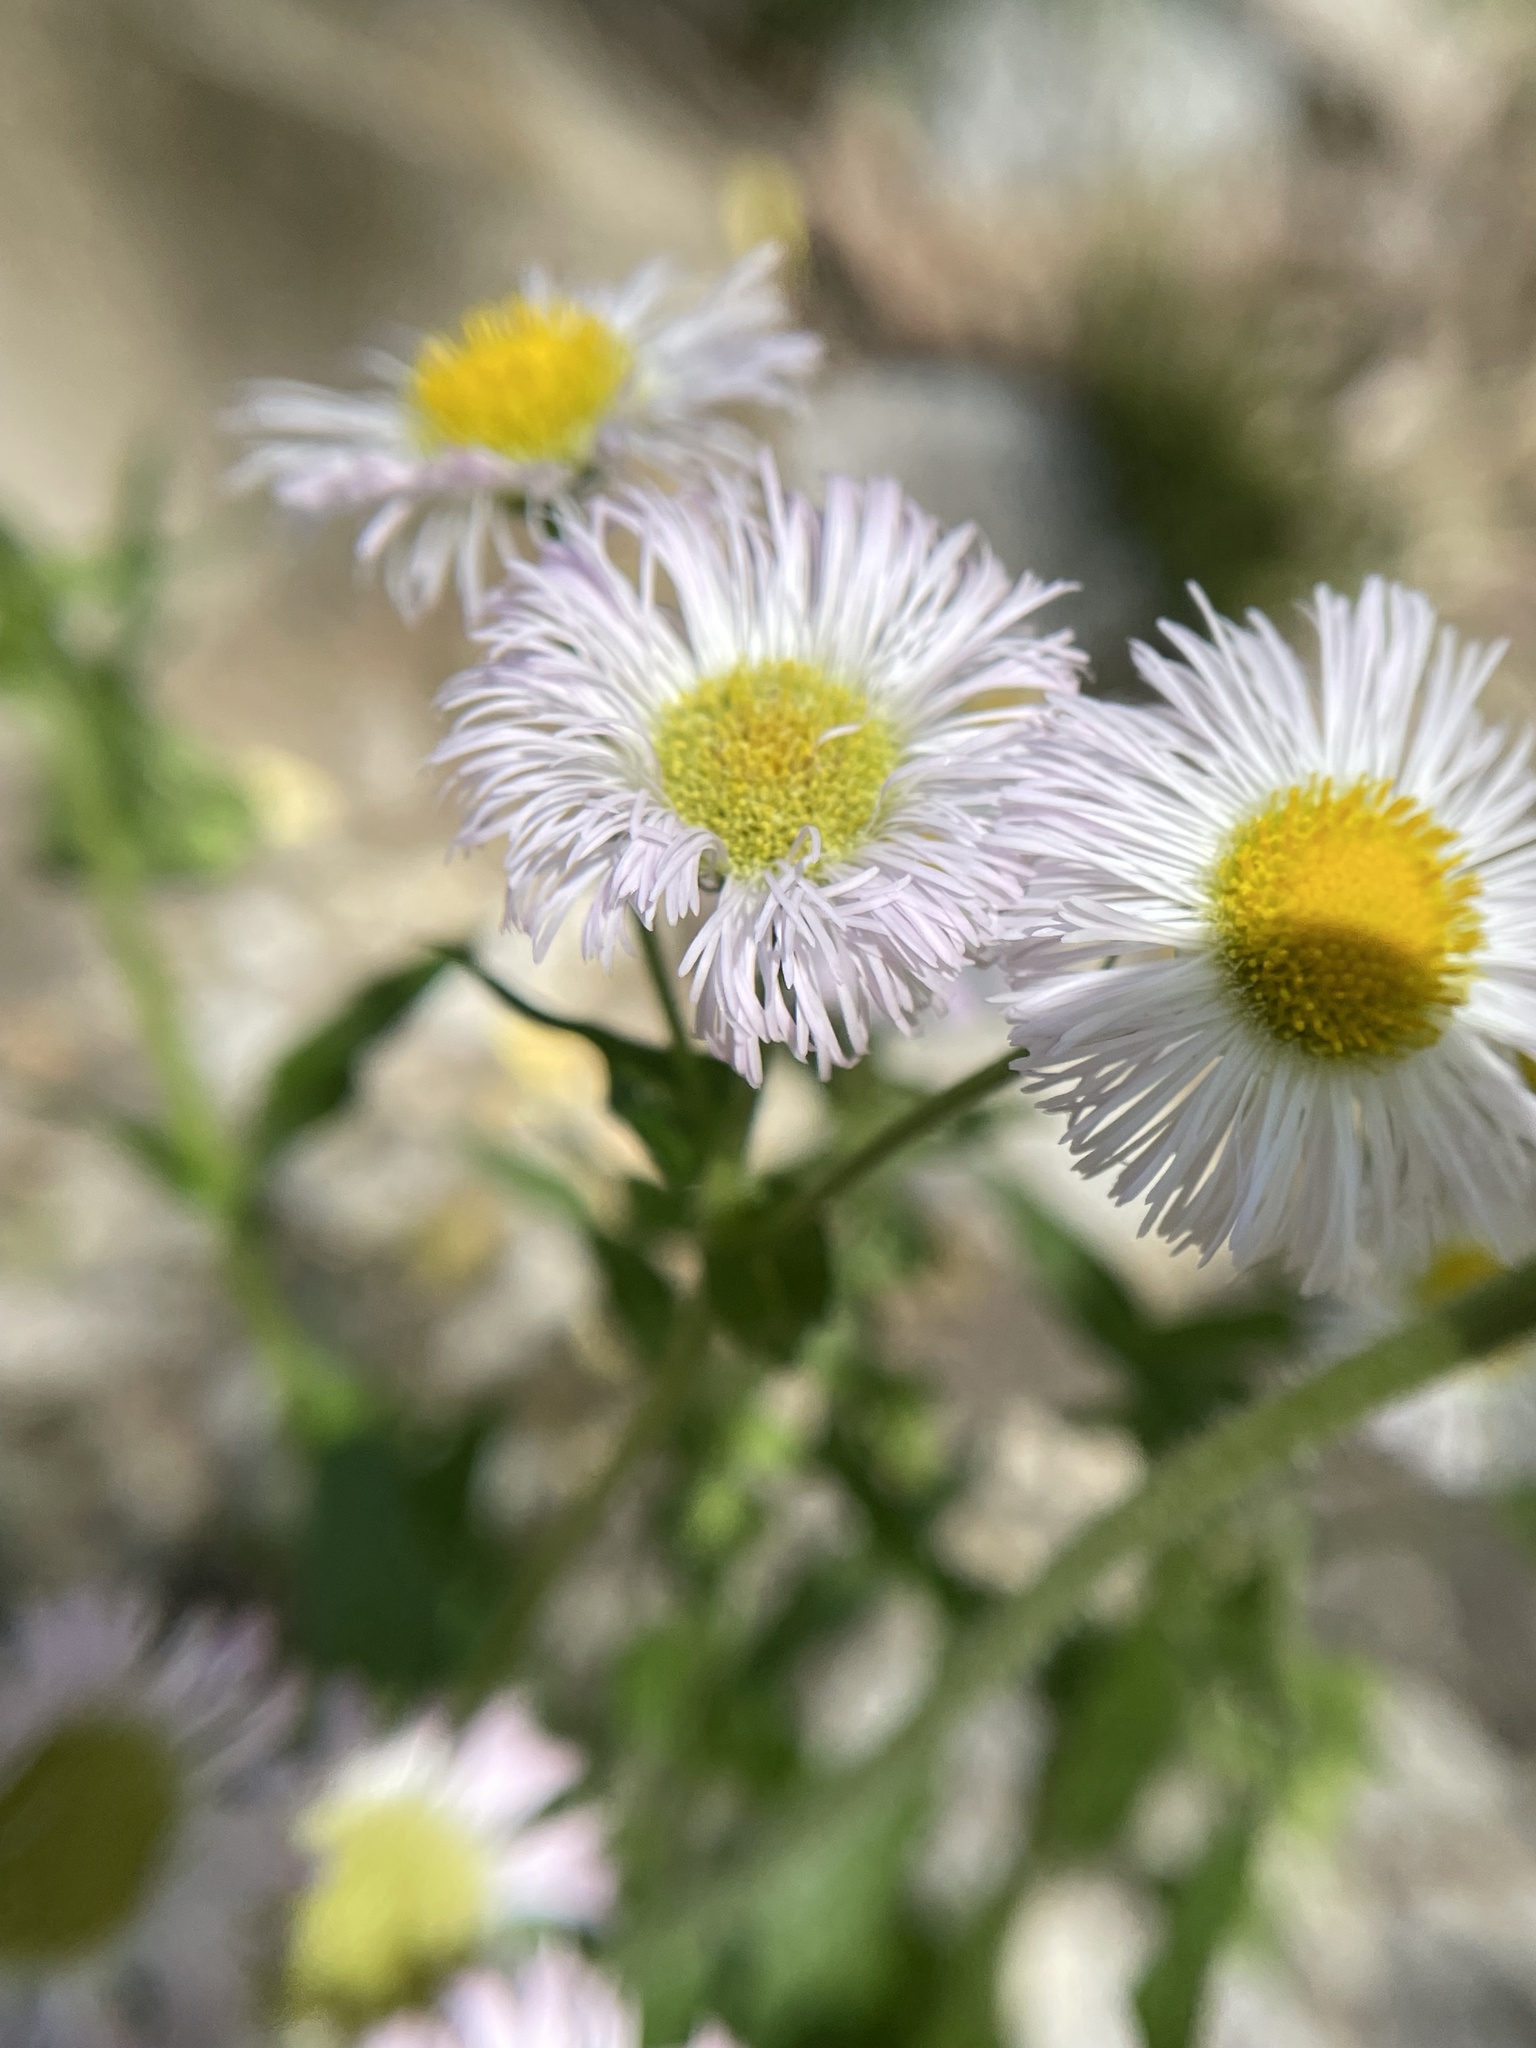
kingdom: Plantae
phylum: Tracheophyta
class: Magnoliopsida
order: Asterales
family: Asteraceae
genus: Erigeron
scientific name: Erigeron philadelphicus
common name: Robin's-plantain
